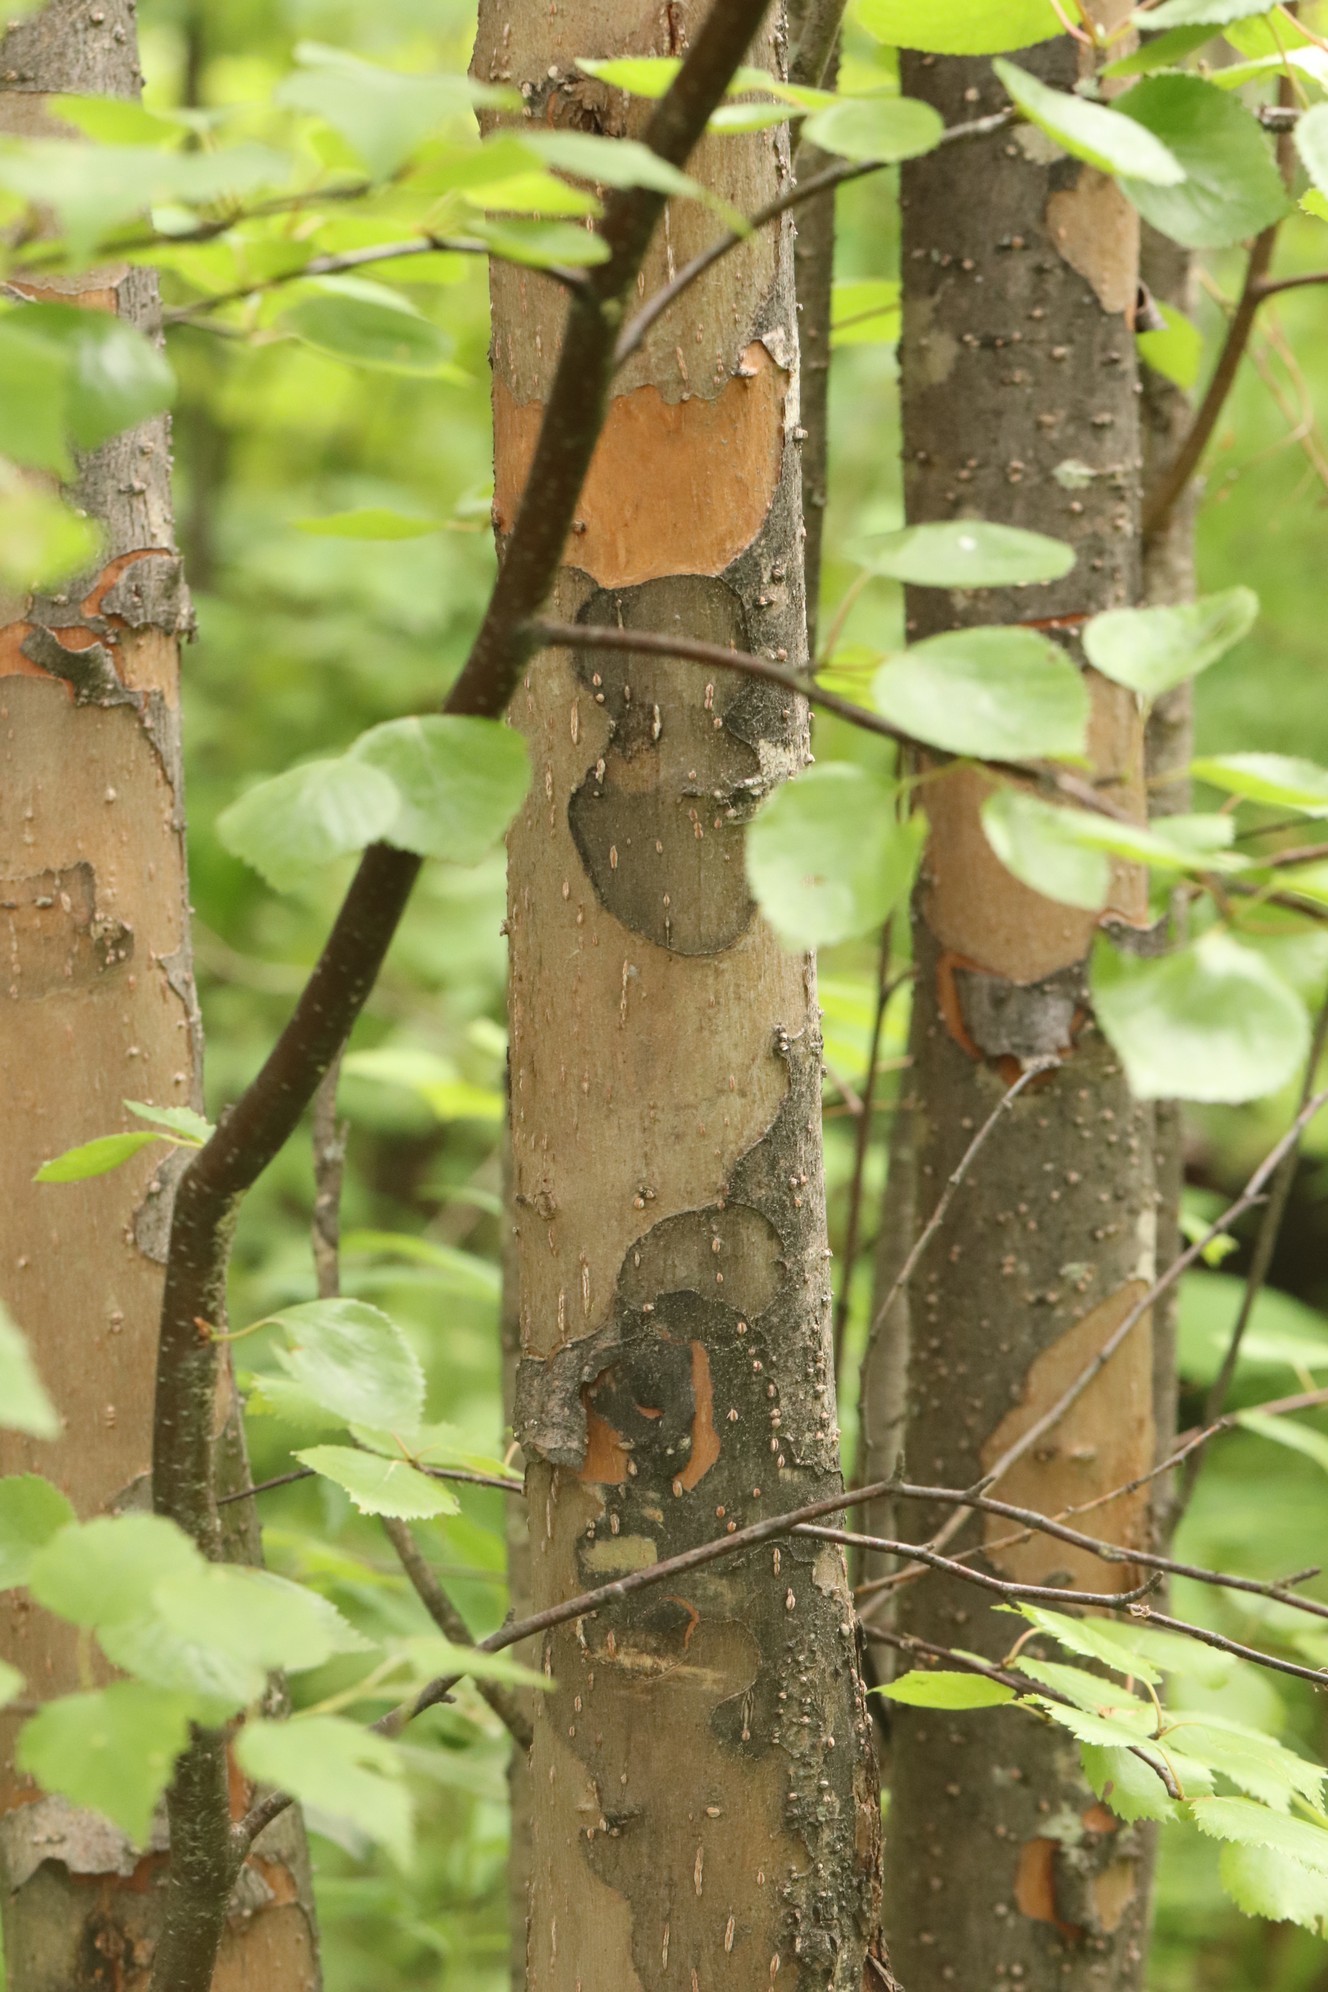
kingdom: Plantae
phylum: Tracheophyta
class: Magnoliopsida
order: Malpighiales
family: Salicaceae
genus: Salix
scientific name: Salix triandra
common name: Almond willow
